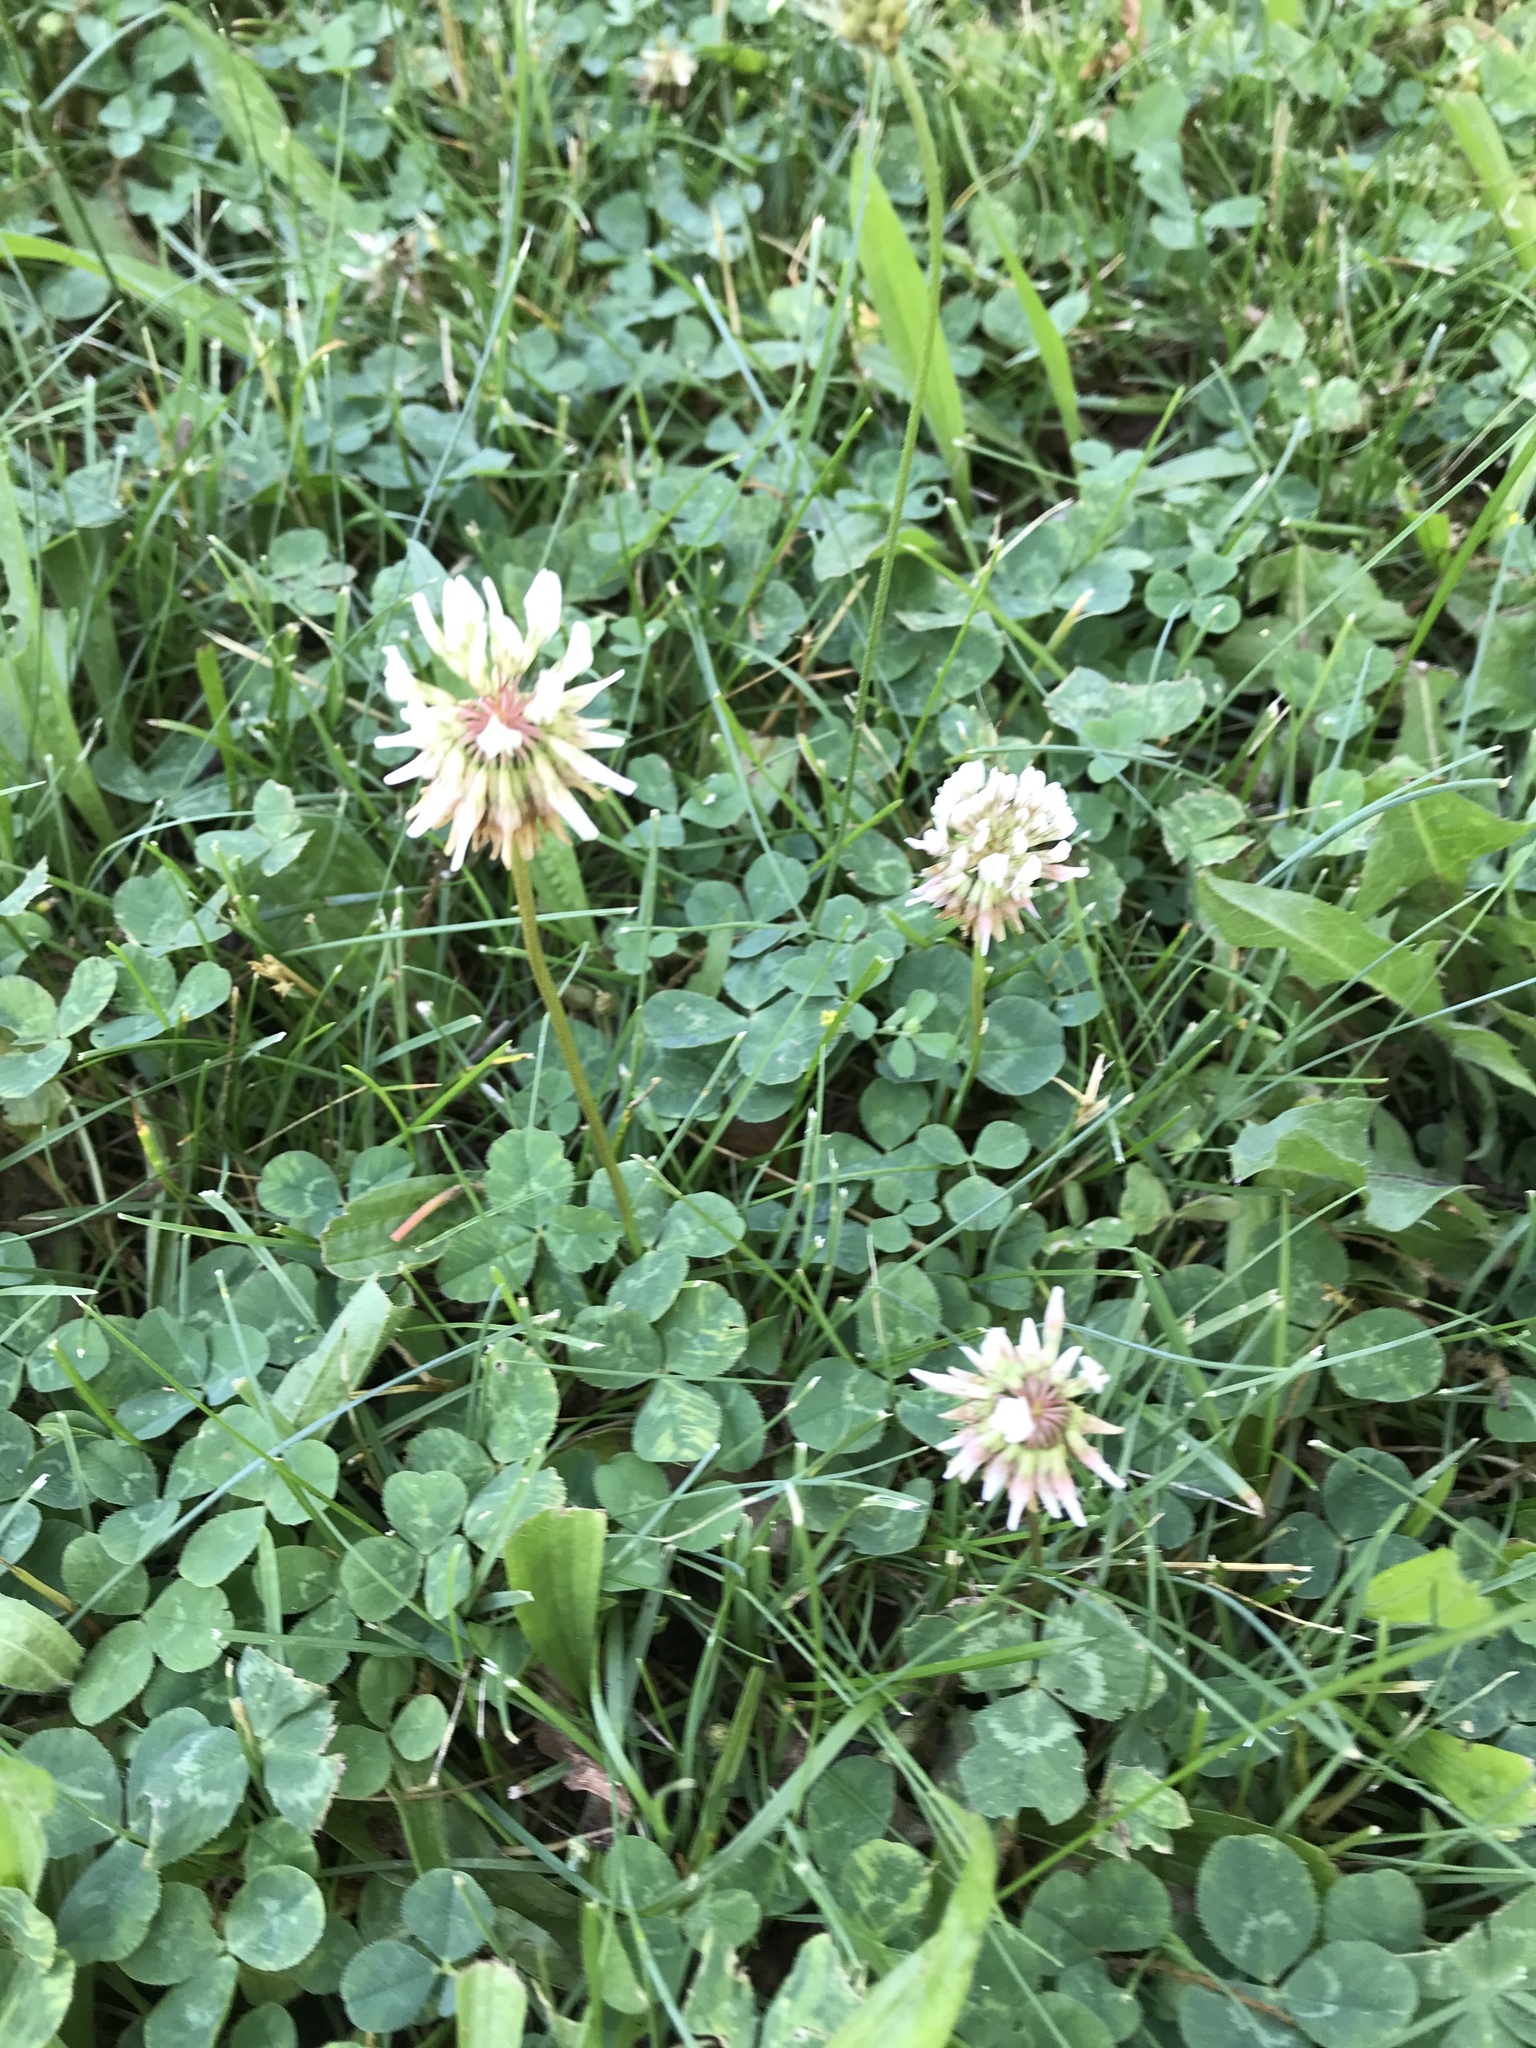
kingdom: Plantae
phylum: Tracheophyta
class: Magnoliopsida
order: Fabales
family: Fabaceae
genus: Trifolium
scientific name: Trifolium repens
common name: White clover
